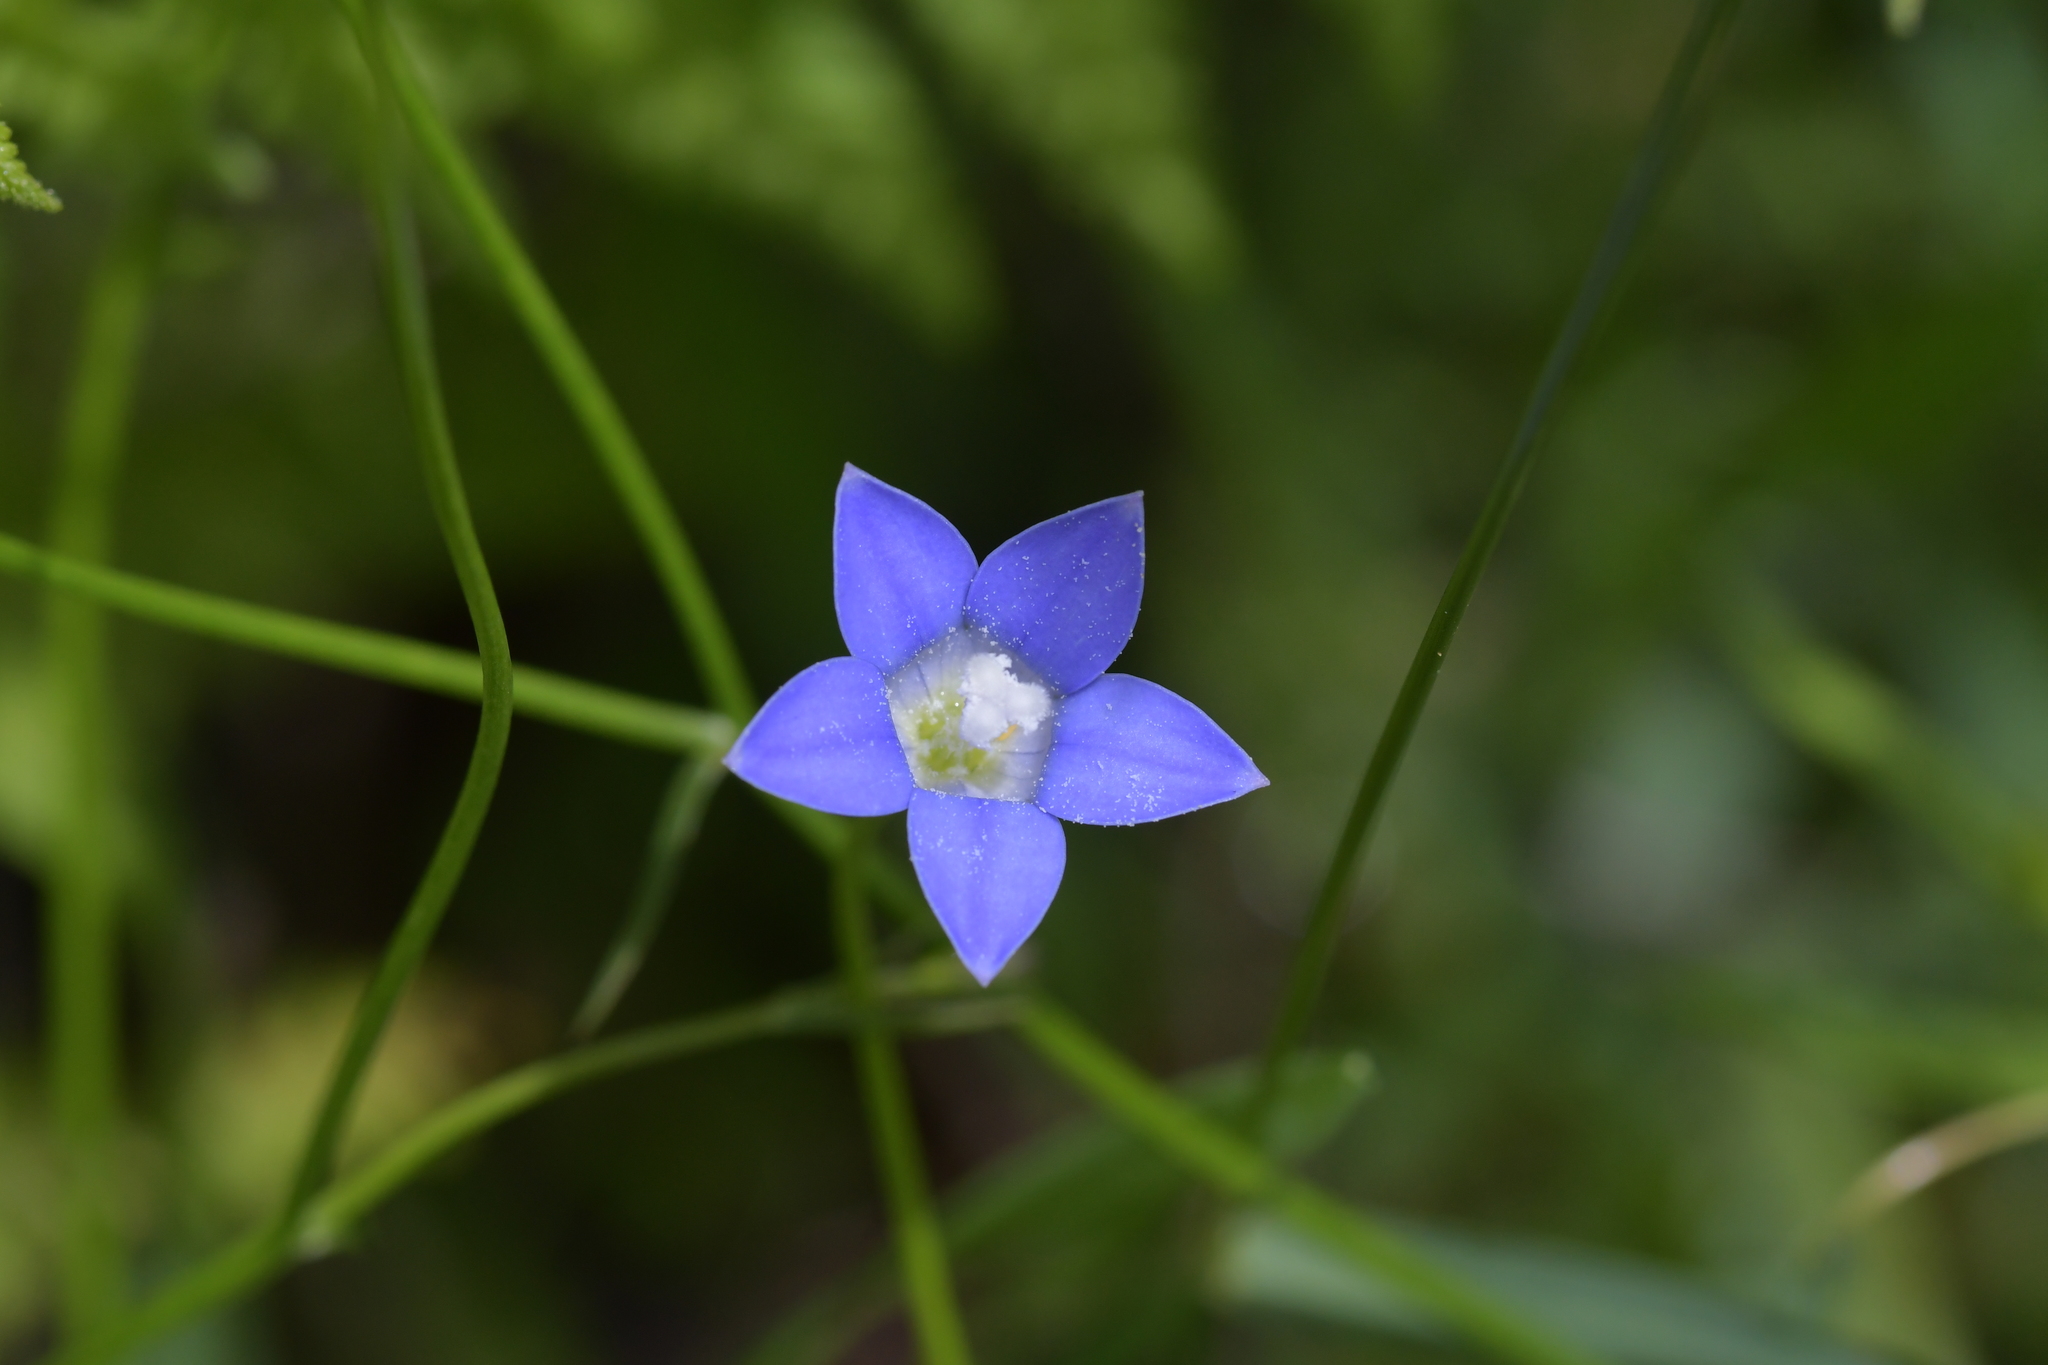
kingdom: Plantae
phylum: Tracheophyta
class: Magnoliopsida
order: Asterales
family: Campanulaceae
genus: Wahlenbergia
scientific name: Wahlenbergia violacea
